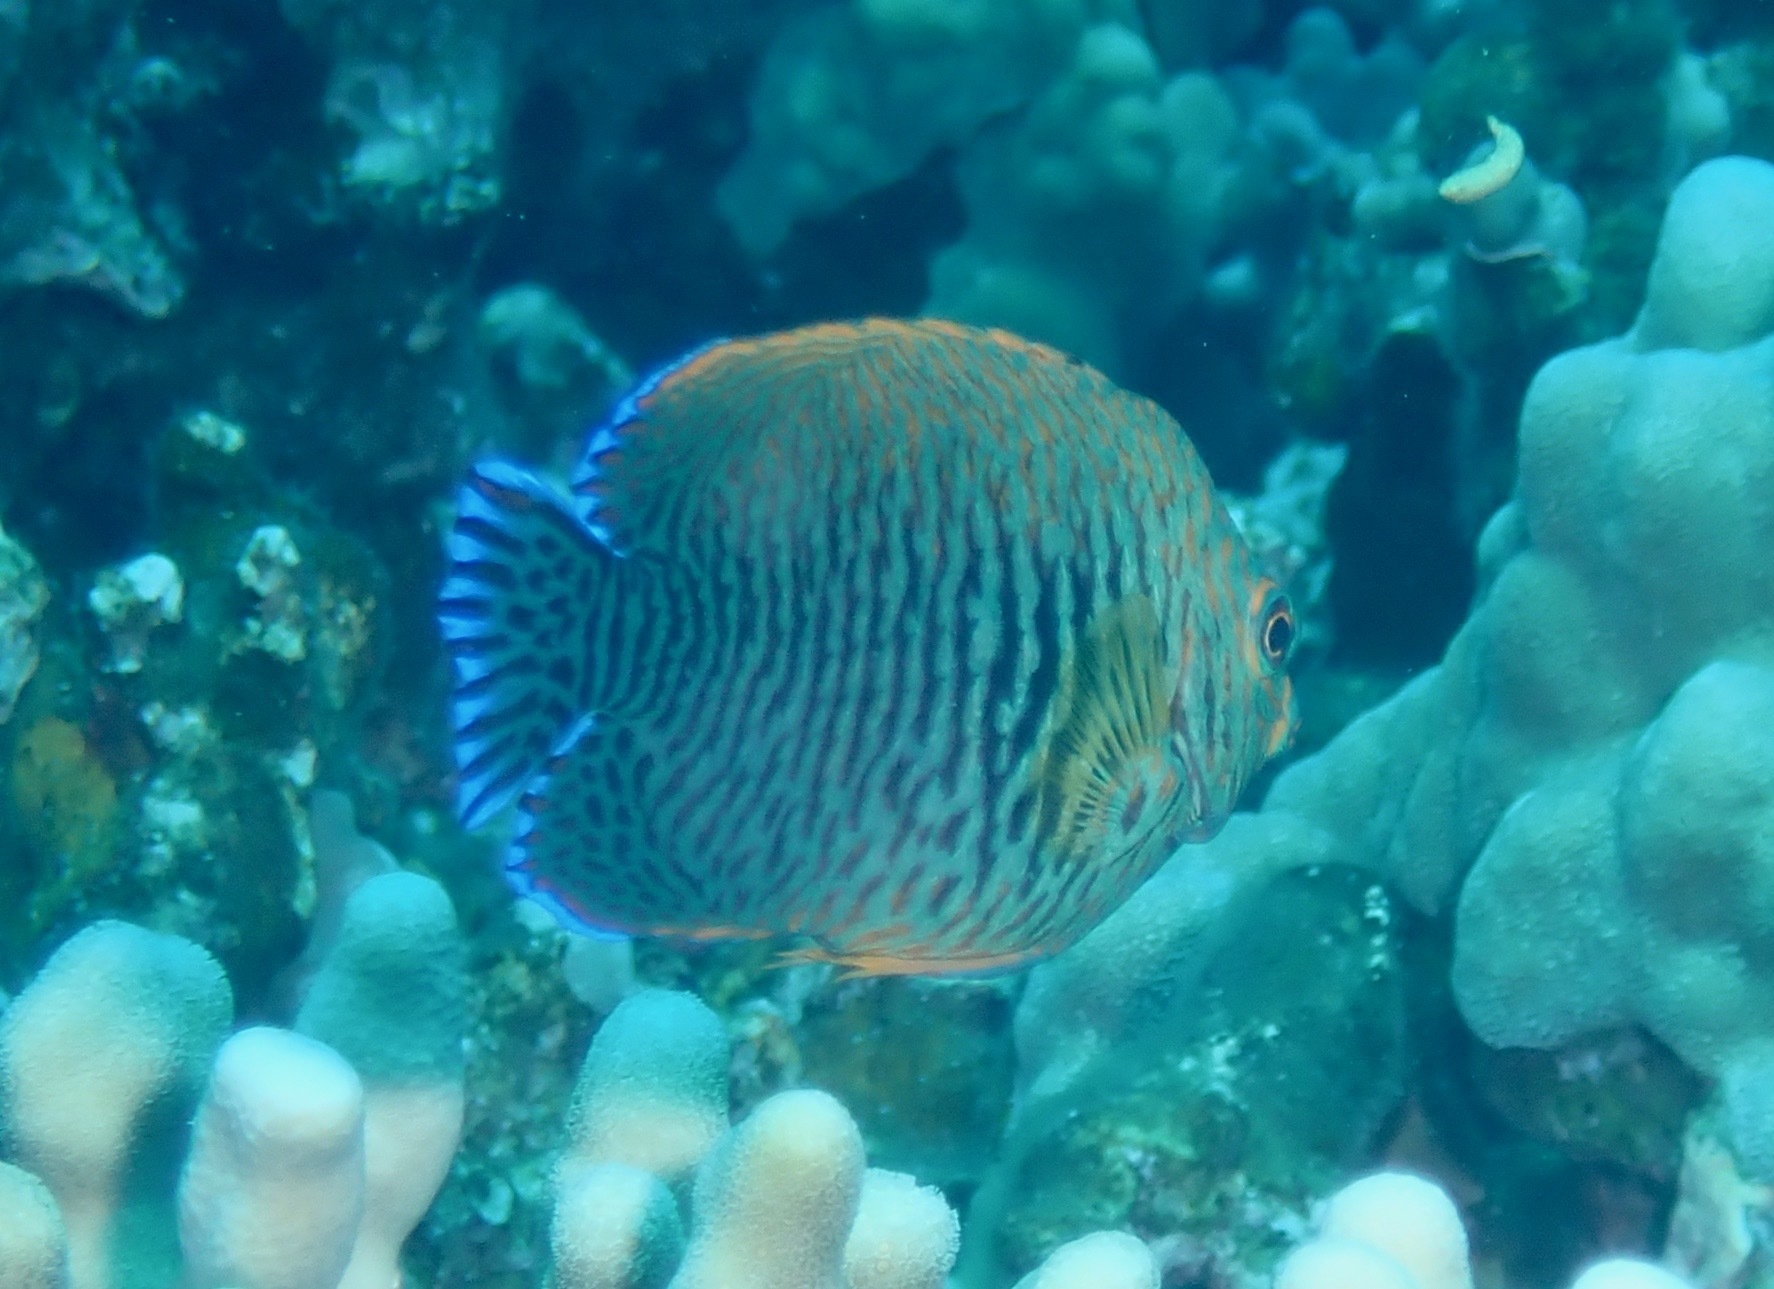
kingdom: Animalia
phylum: Chordata
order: Perciformes
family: Pomacanthidae
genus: Centropyge
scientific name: Centropyge potteri
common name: Potter's angelfish
